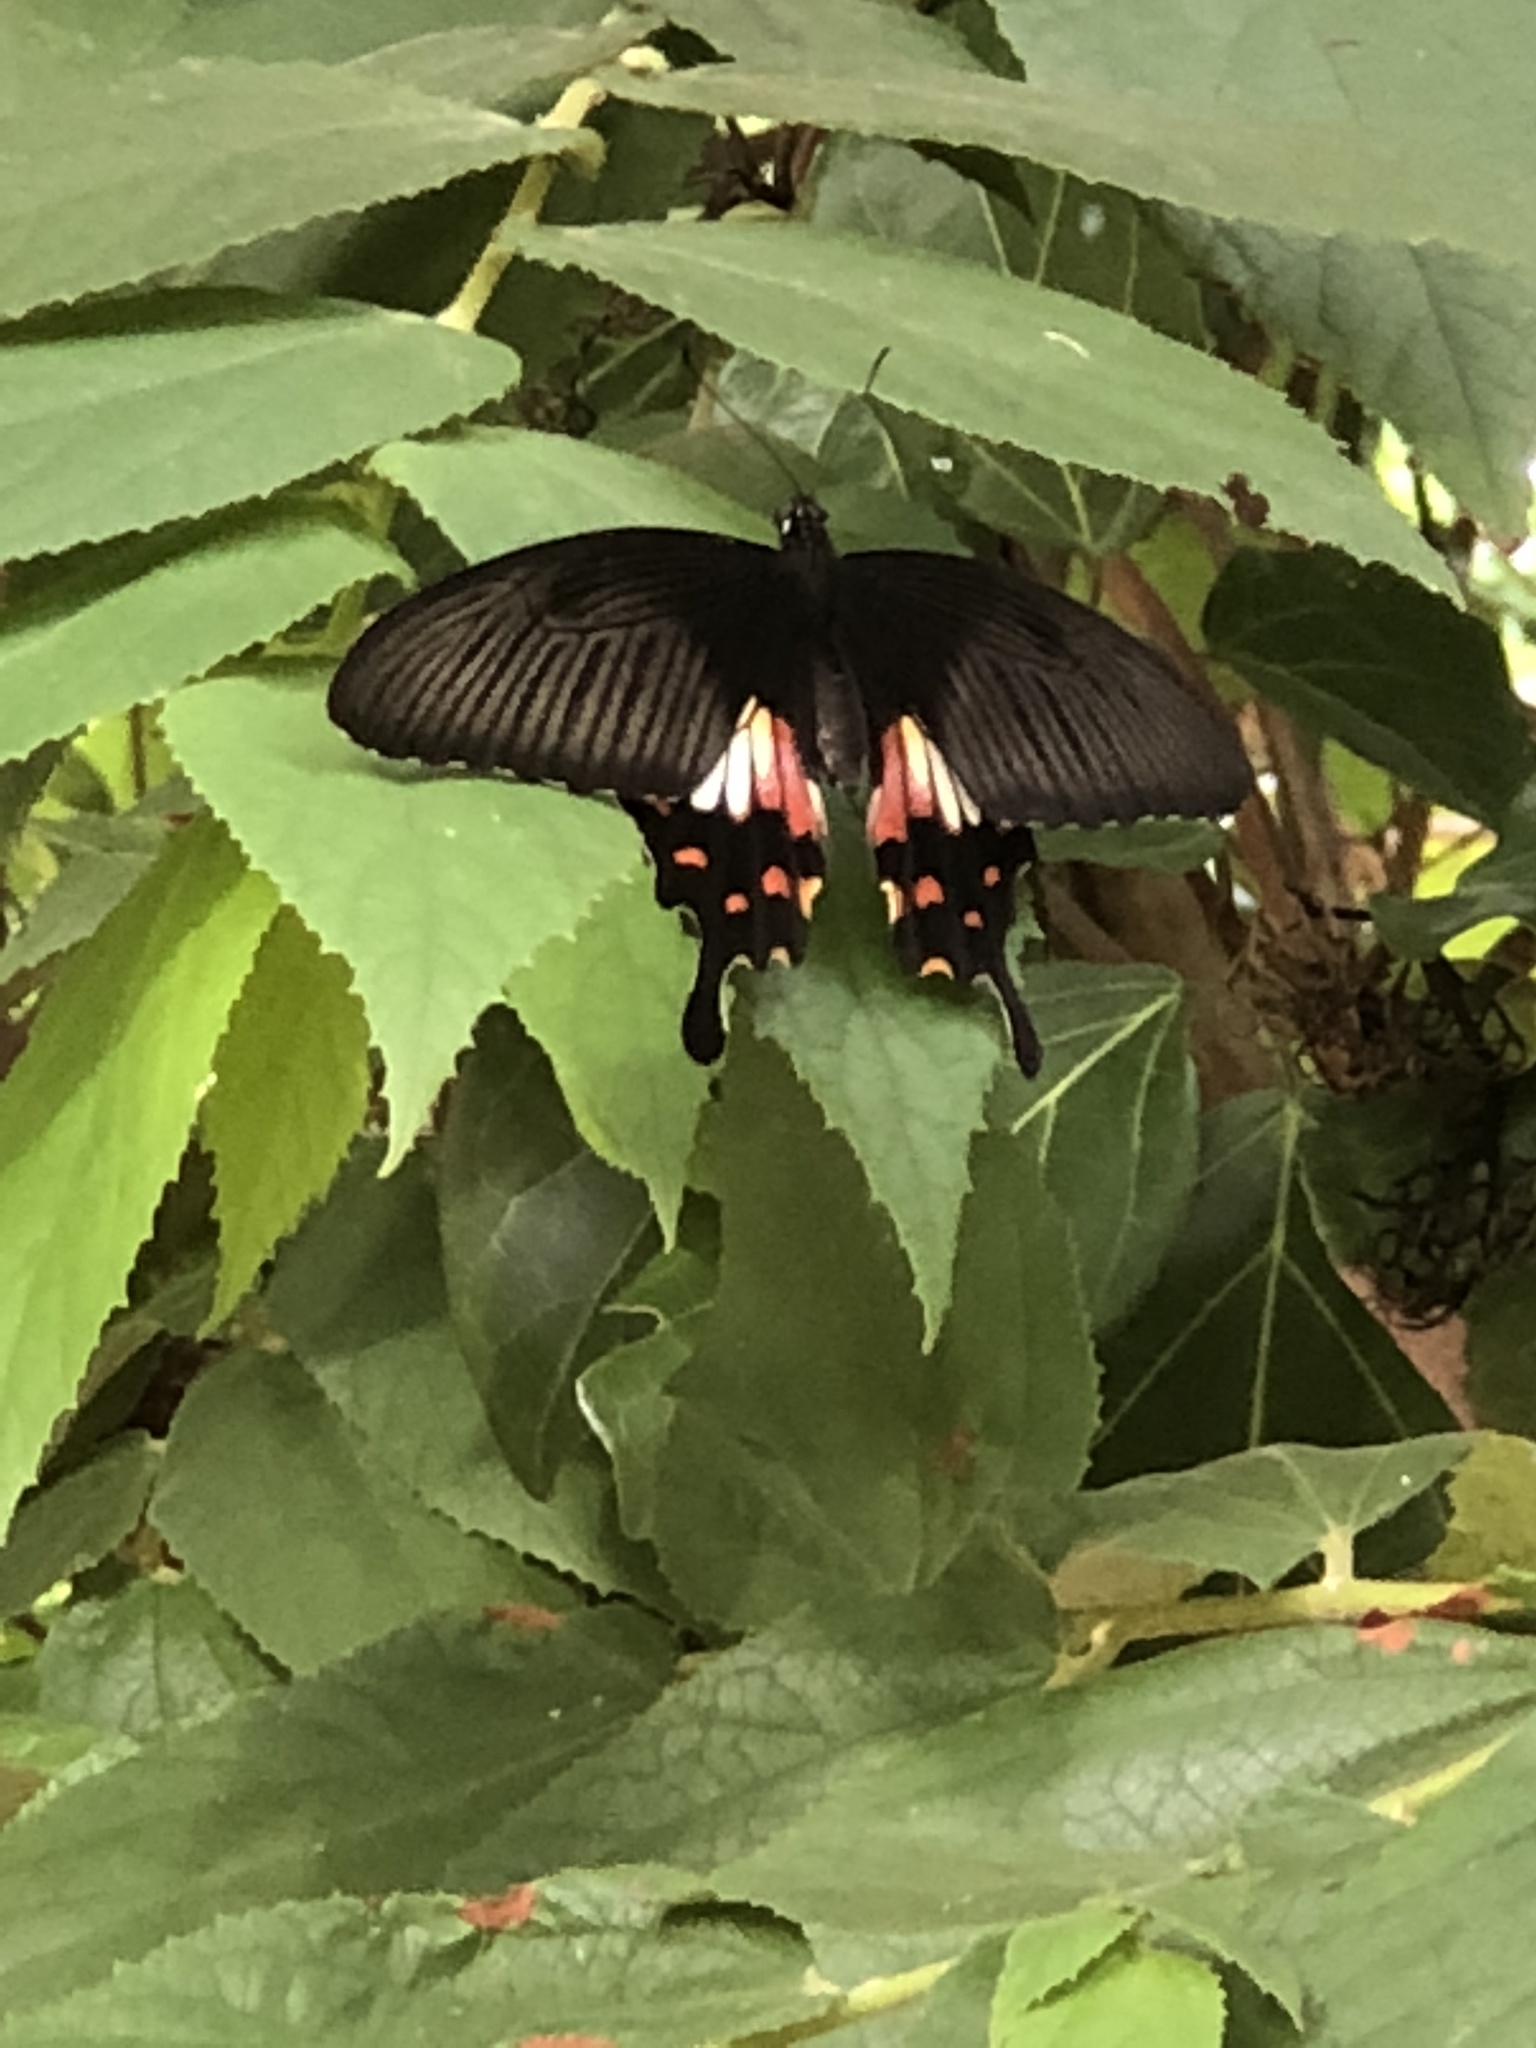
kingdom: Animalia
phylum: Arthropoda
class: Insecta
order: Lepidoptera
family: Papilionidae
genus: Papilio
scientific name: Papilio polytes
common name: Common mormon
